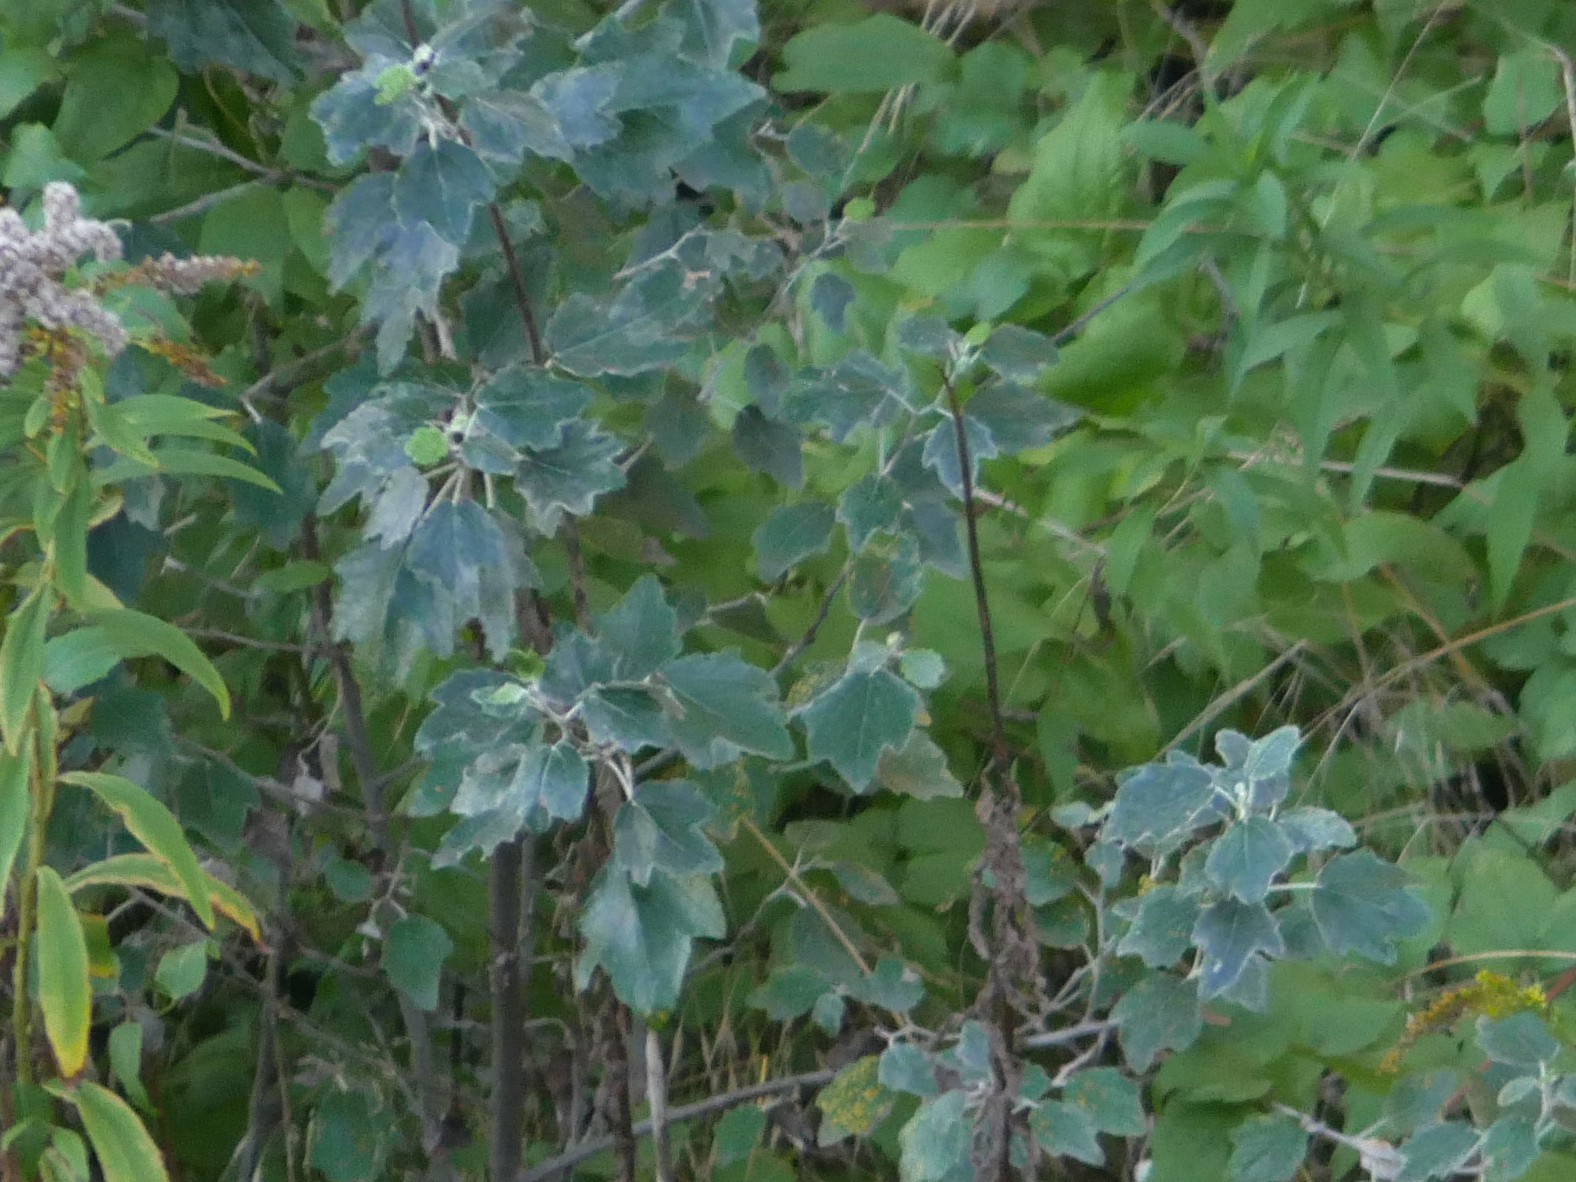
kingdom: Plantae
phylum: Tracheophyta
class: Magnoliopsida
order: Malpighiales
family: Salicaceae
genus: Populus
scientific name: Populus alba
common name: White poplar
